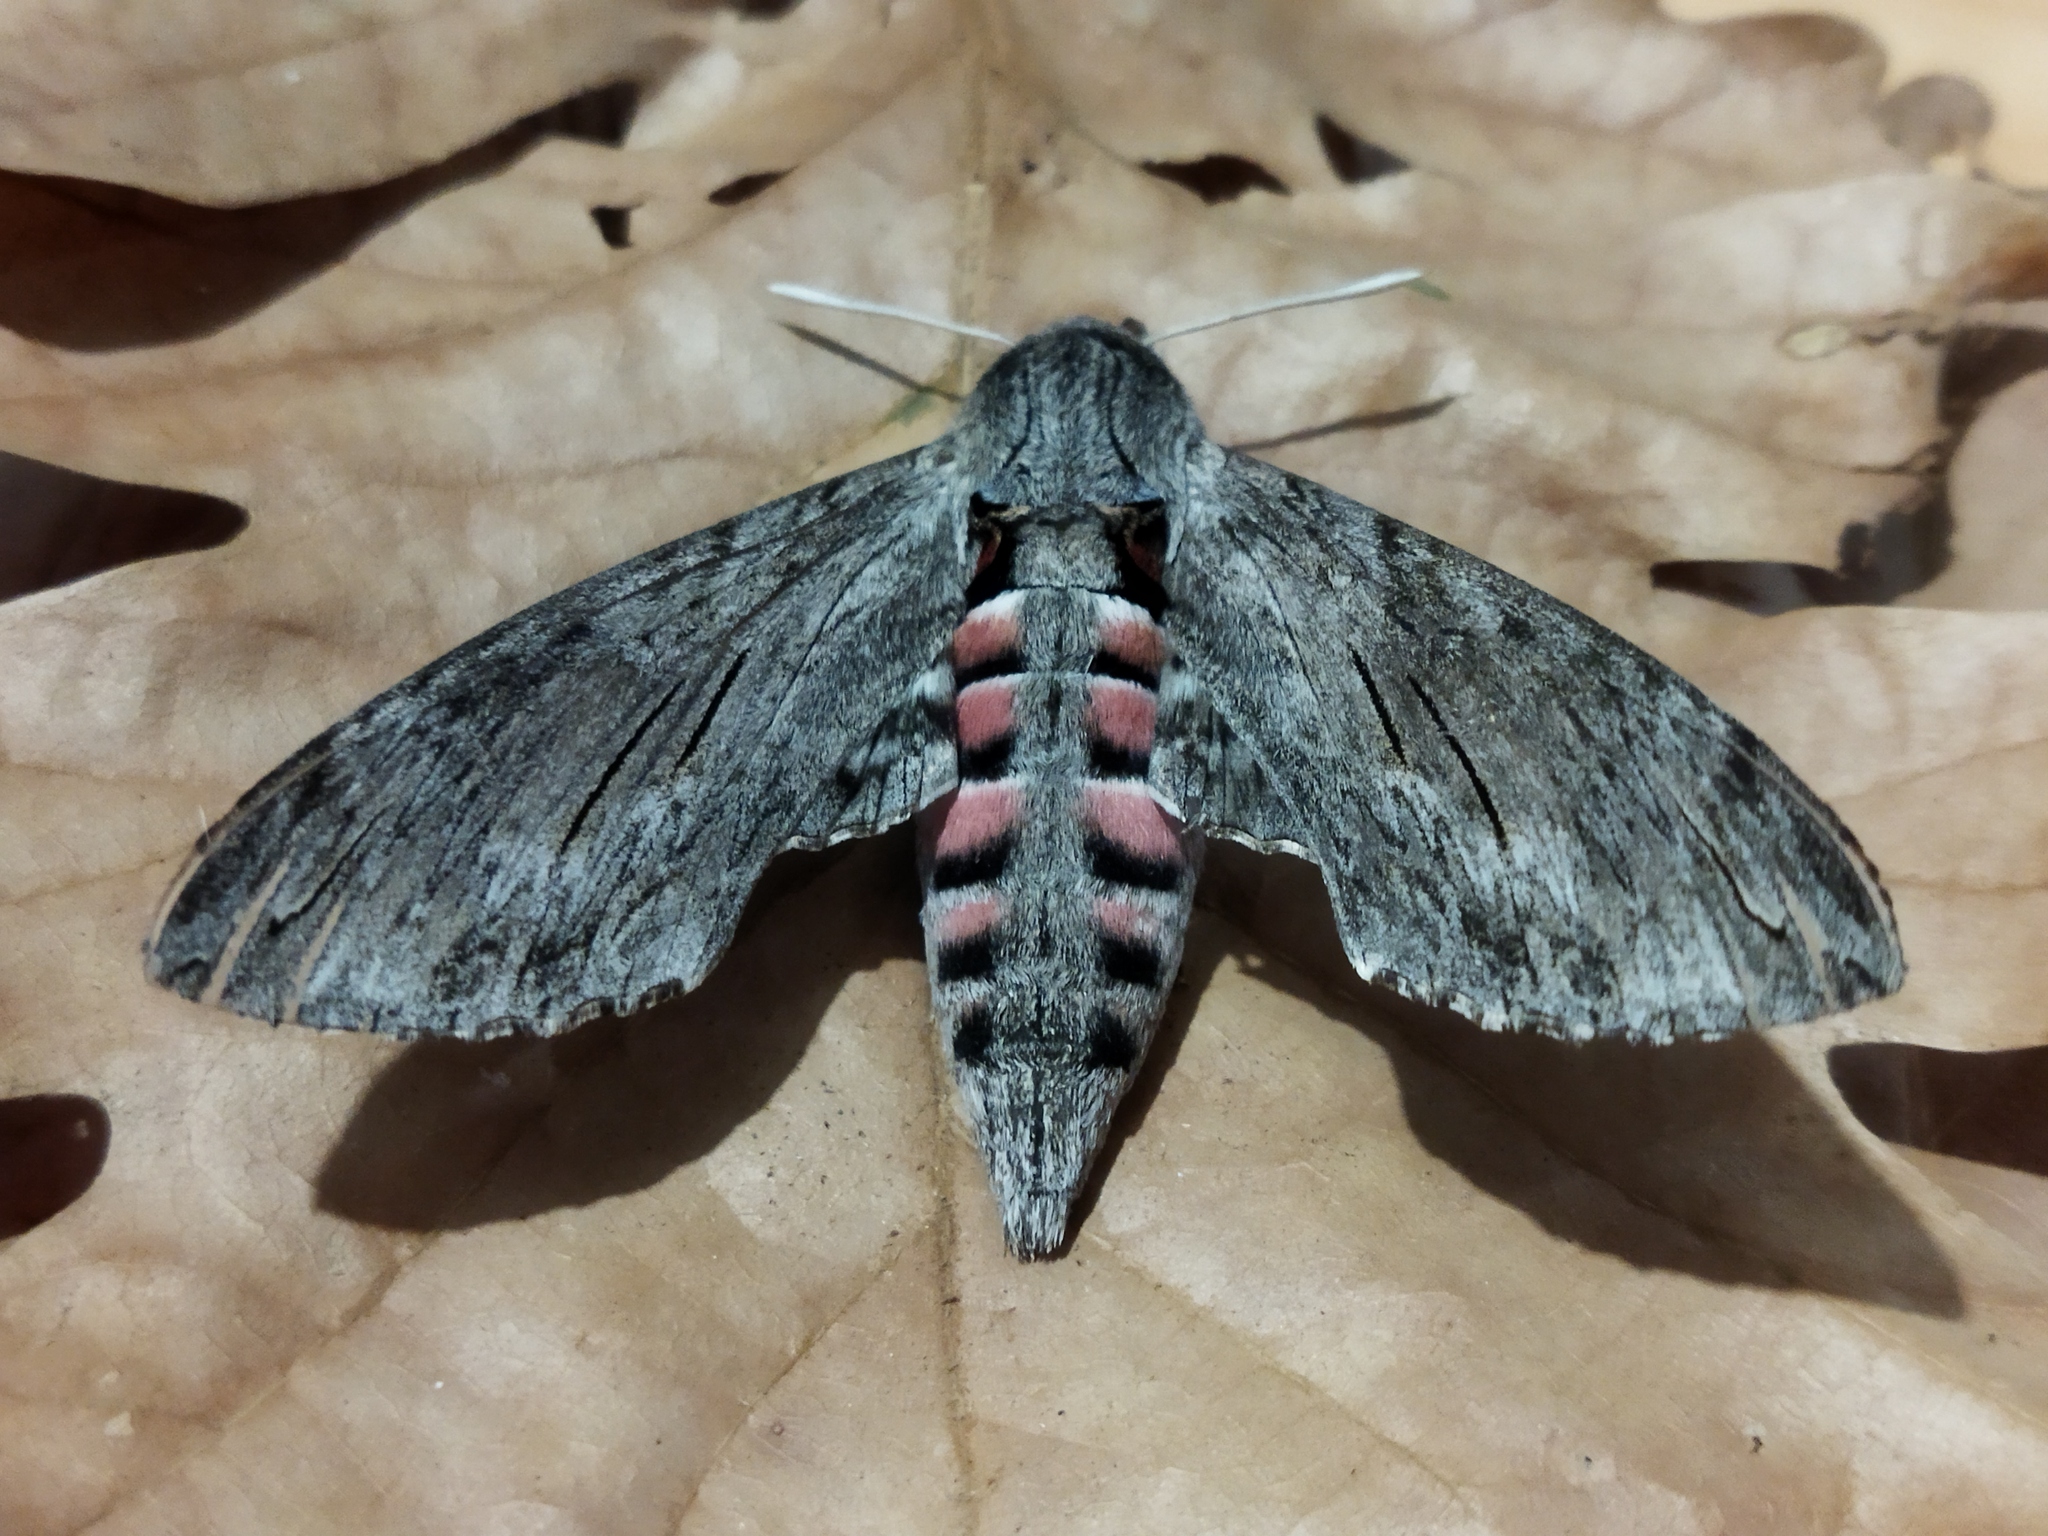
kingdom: Animalia
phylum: Arthropoda
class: Insecta
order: Lepidoptera
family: Sphingidae
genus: Agrius
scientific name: Agrius convolvuli
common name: Convolvulus hawkmoth
